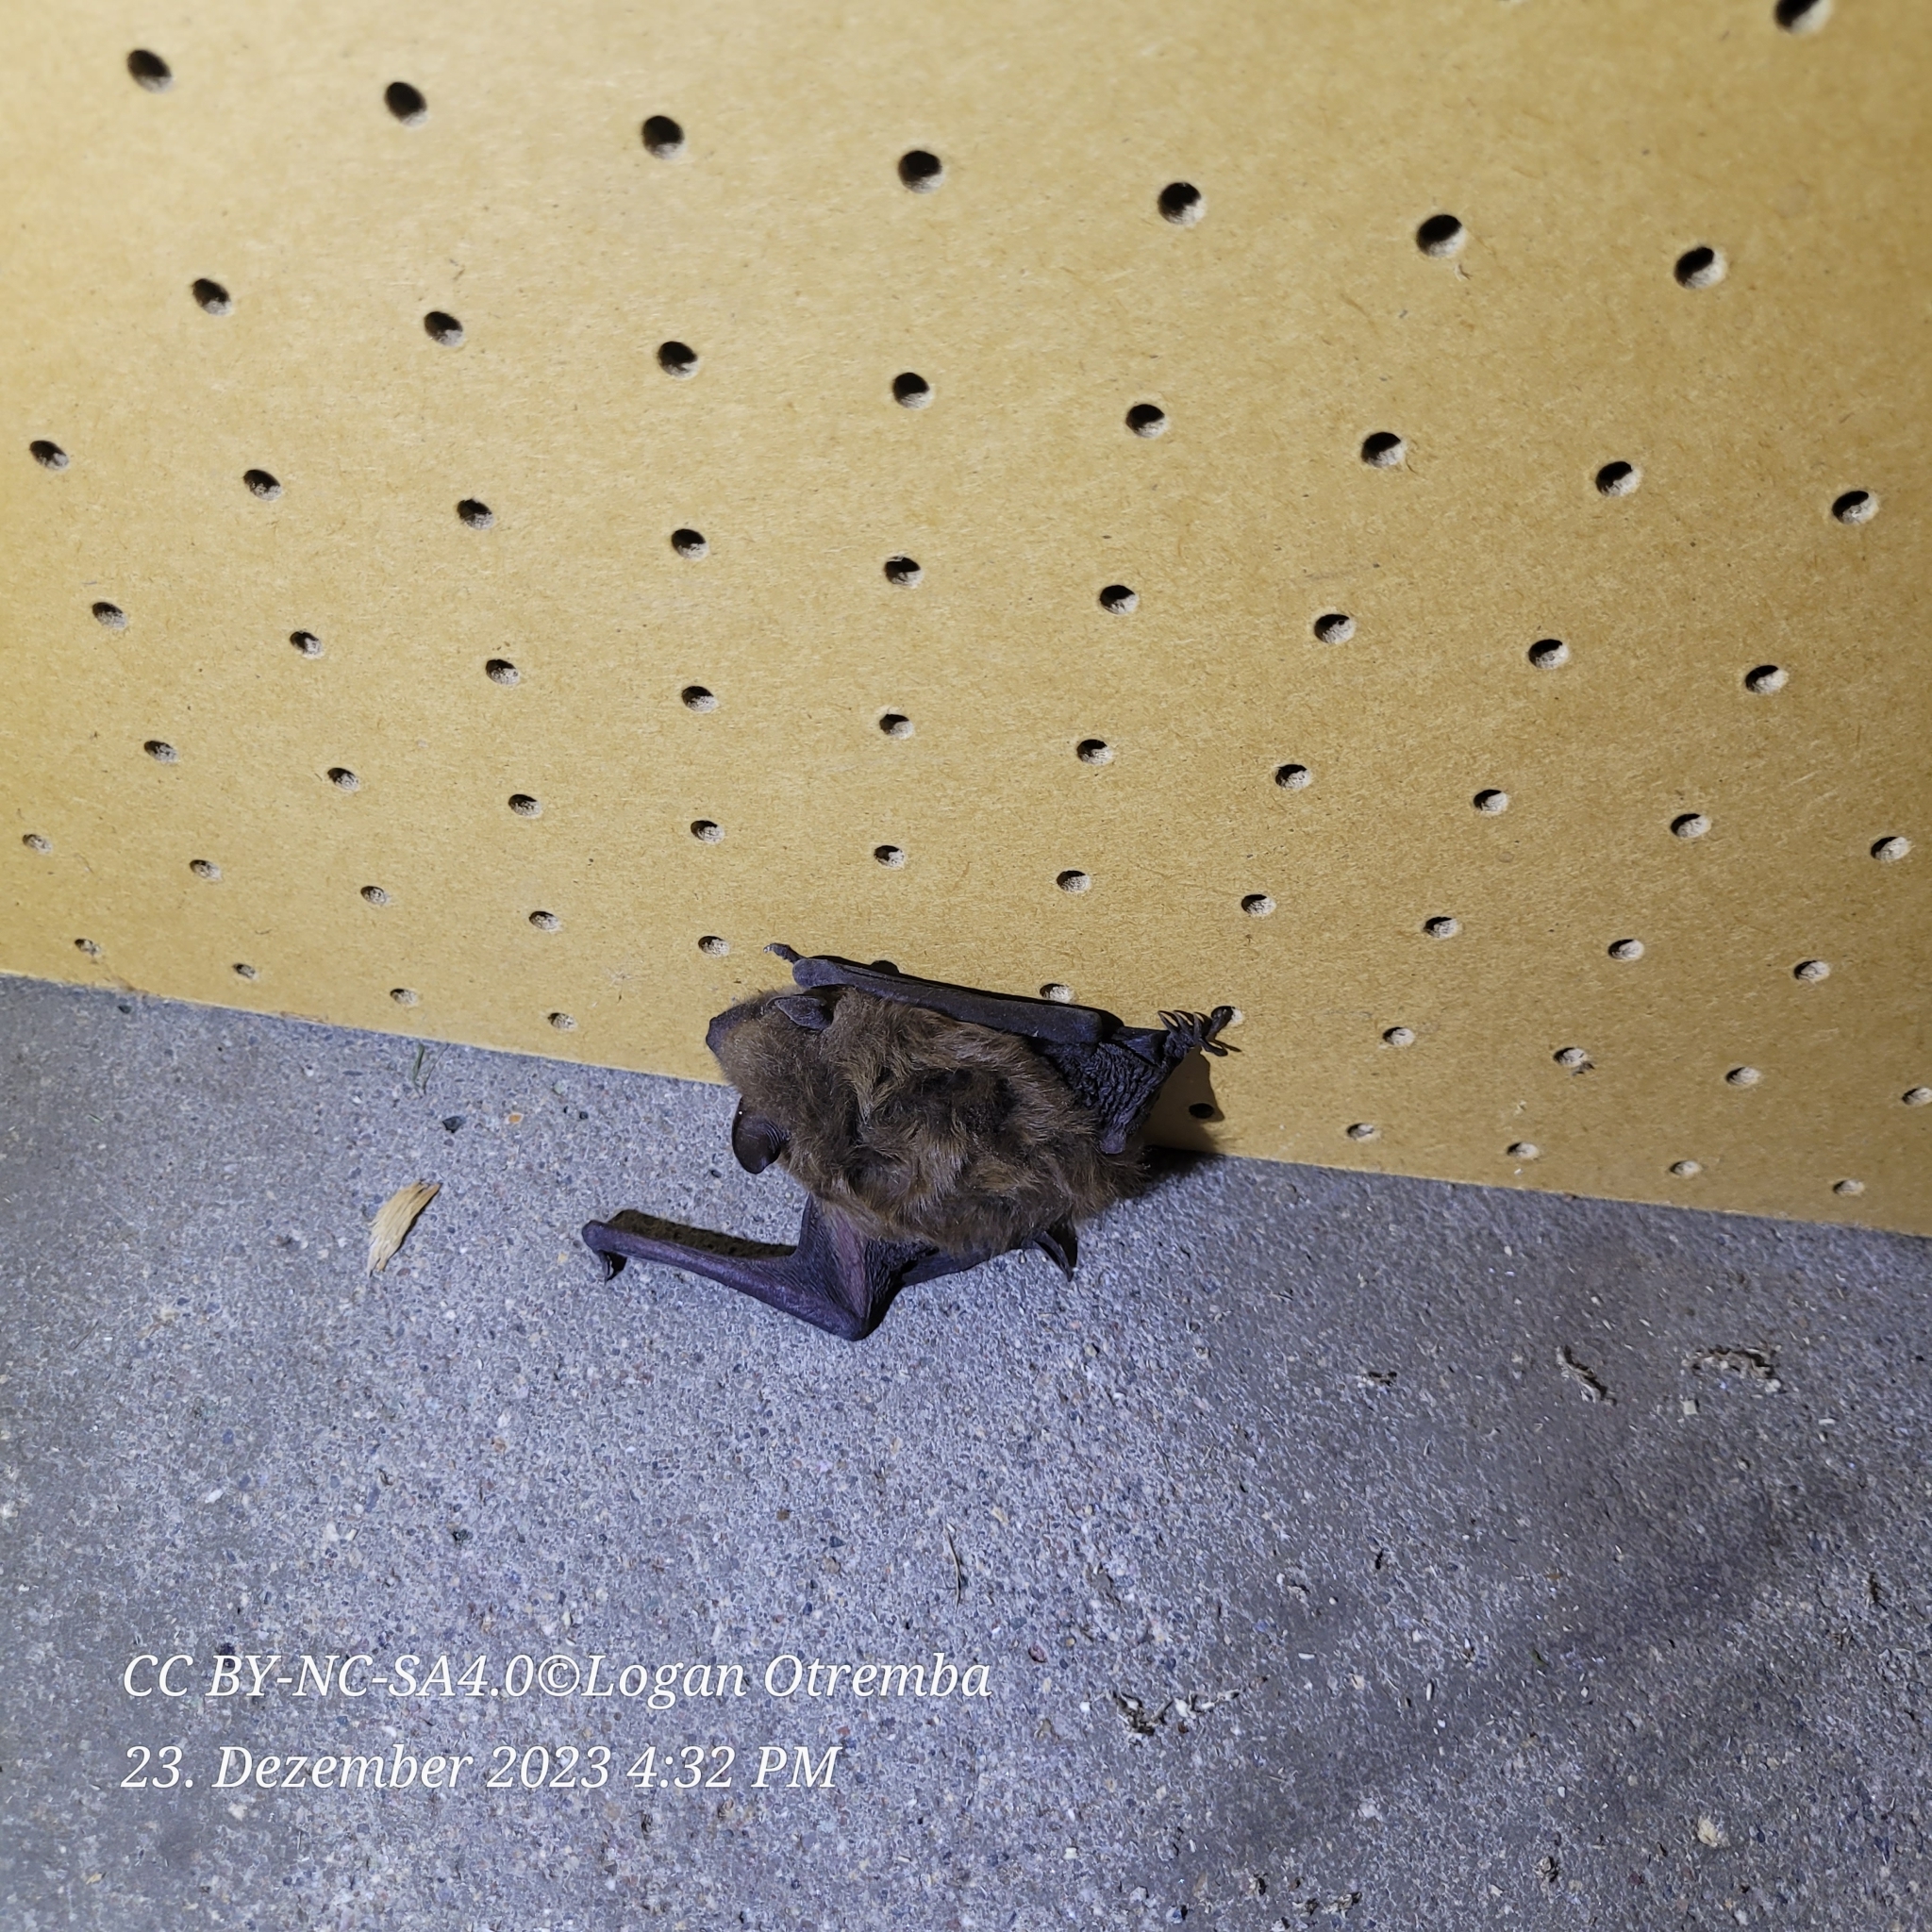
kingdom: Animalia
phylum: Chordata
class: Mammalia
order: Chiroptera
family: Vespertilionidae
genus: Eptesicus
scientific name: Eptesicus fuscus
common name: Big brown bat
